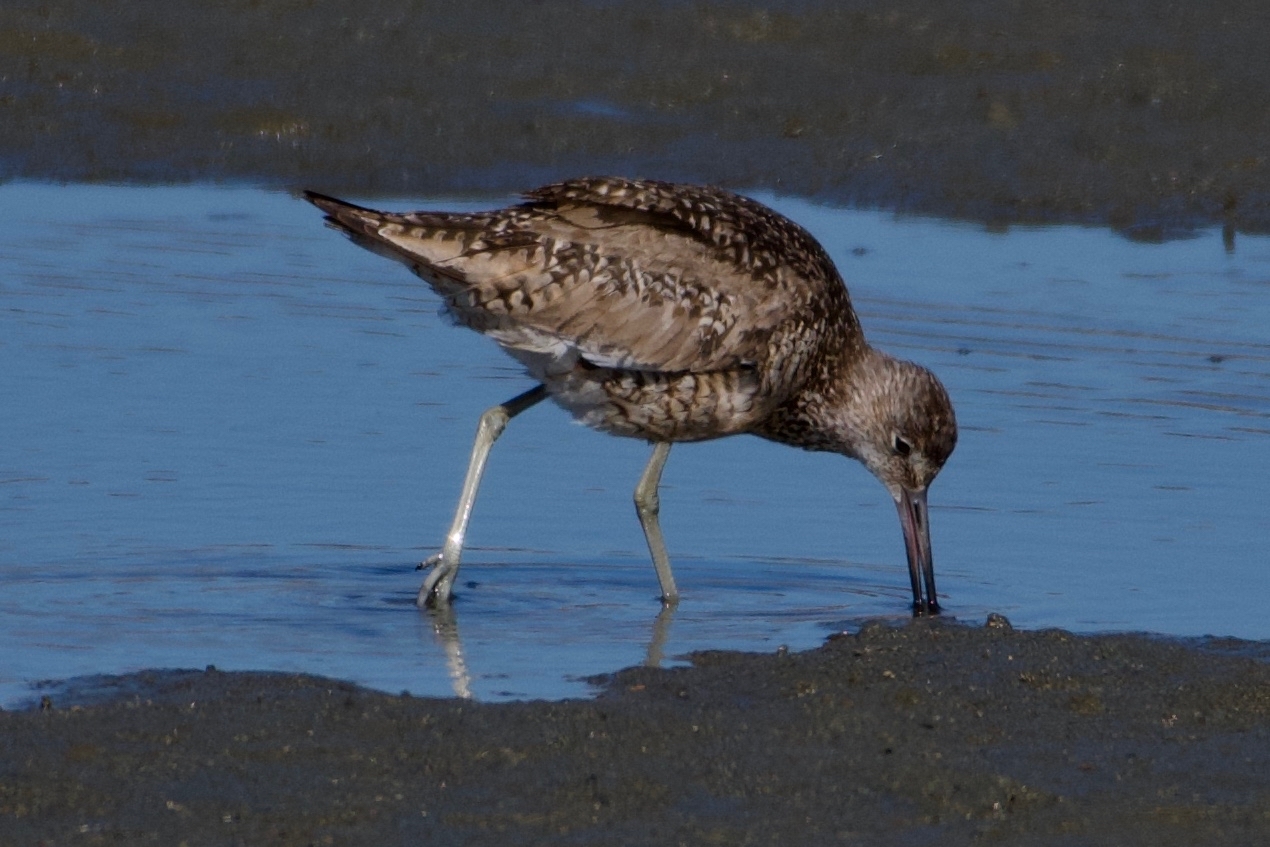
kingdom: Animalia
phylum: Chordata
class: Aves
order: Charadriiformes
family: Scolopacidae
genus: Tringa
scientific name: Tringa semipalmata
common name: Willet
